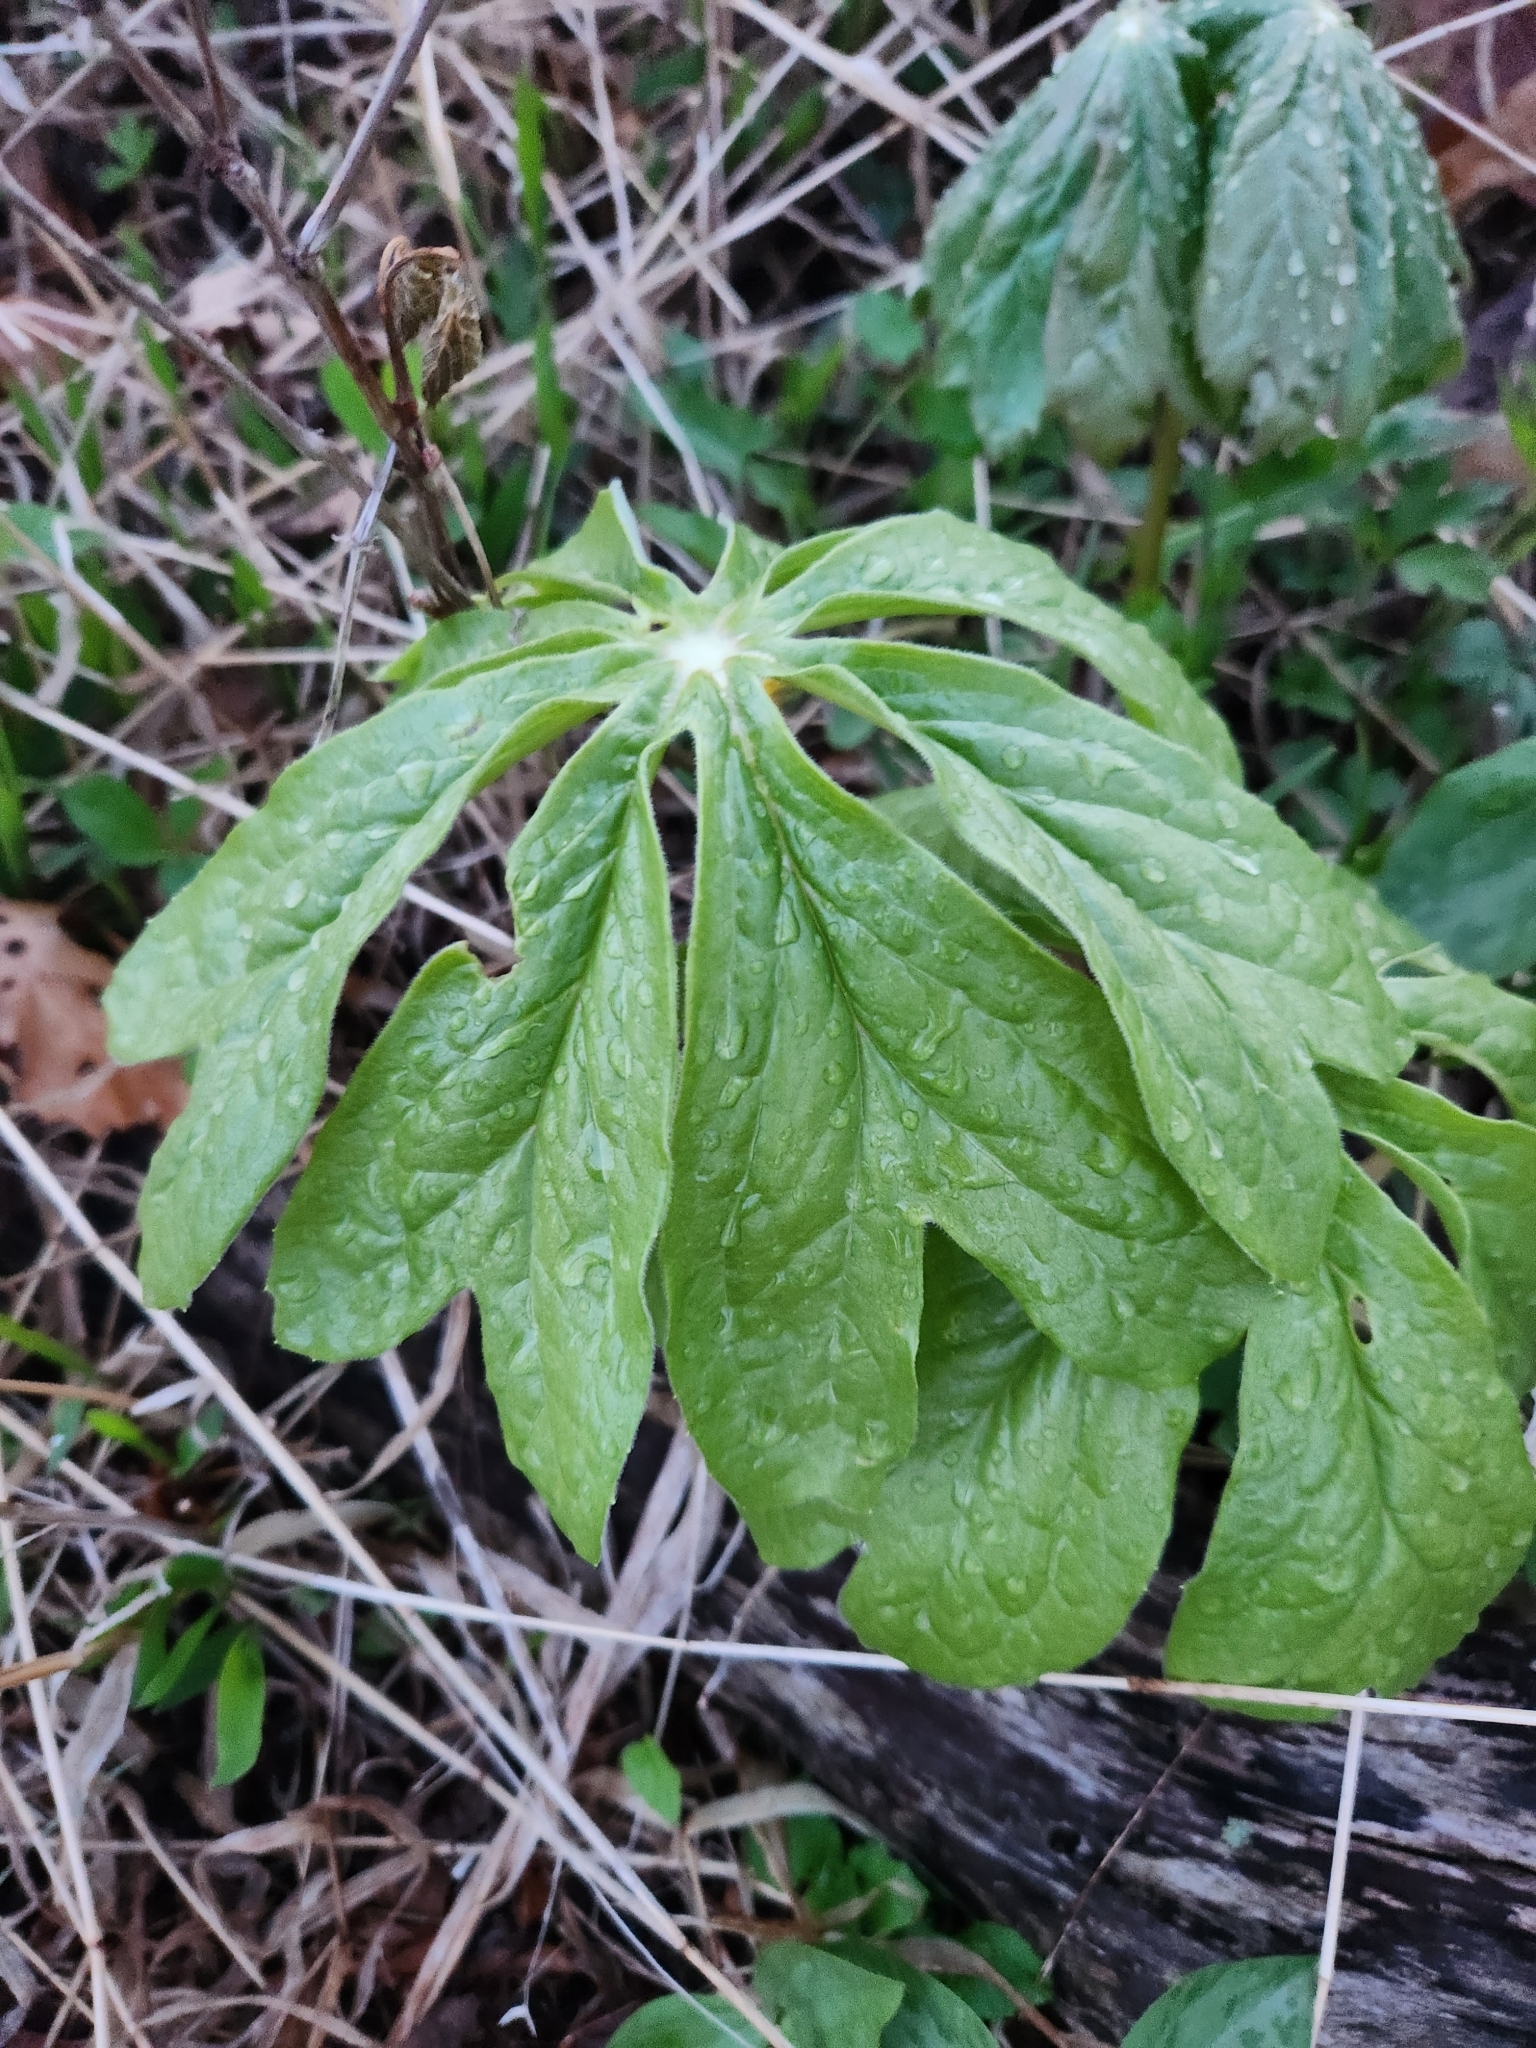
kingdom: Plantae
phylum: Tracheophyta
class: Magnoliopsida
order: Ranunculales
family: Berberidaceae
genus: Podophyllum
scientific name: Podophyllum peltatum
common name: Wild mandrake
